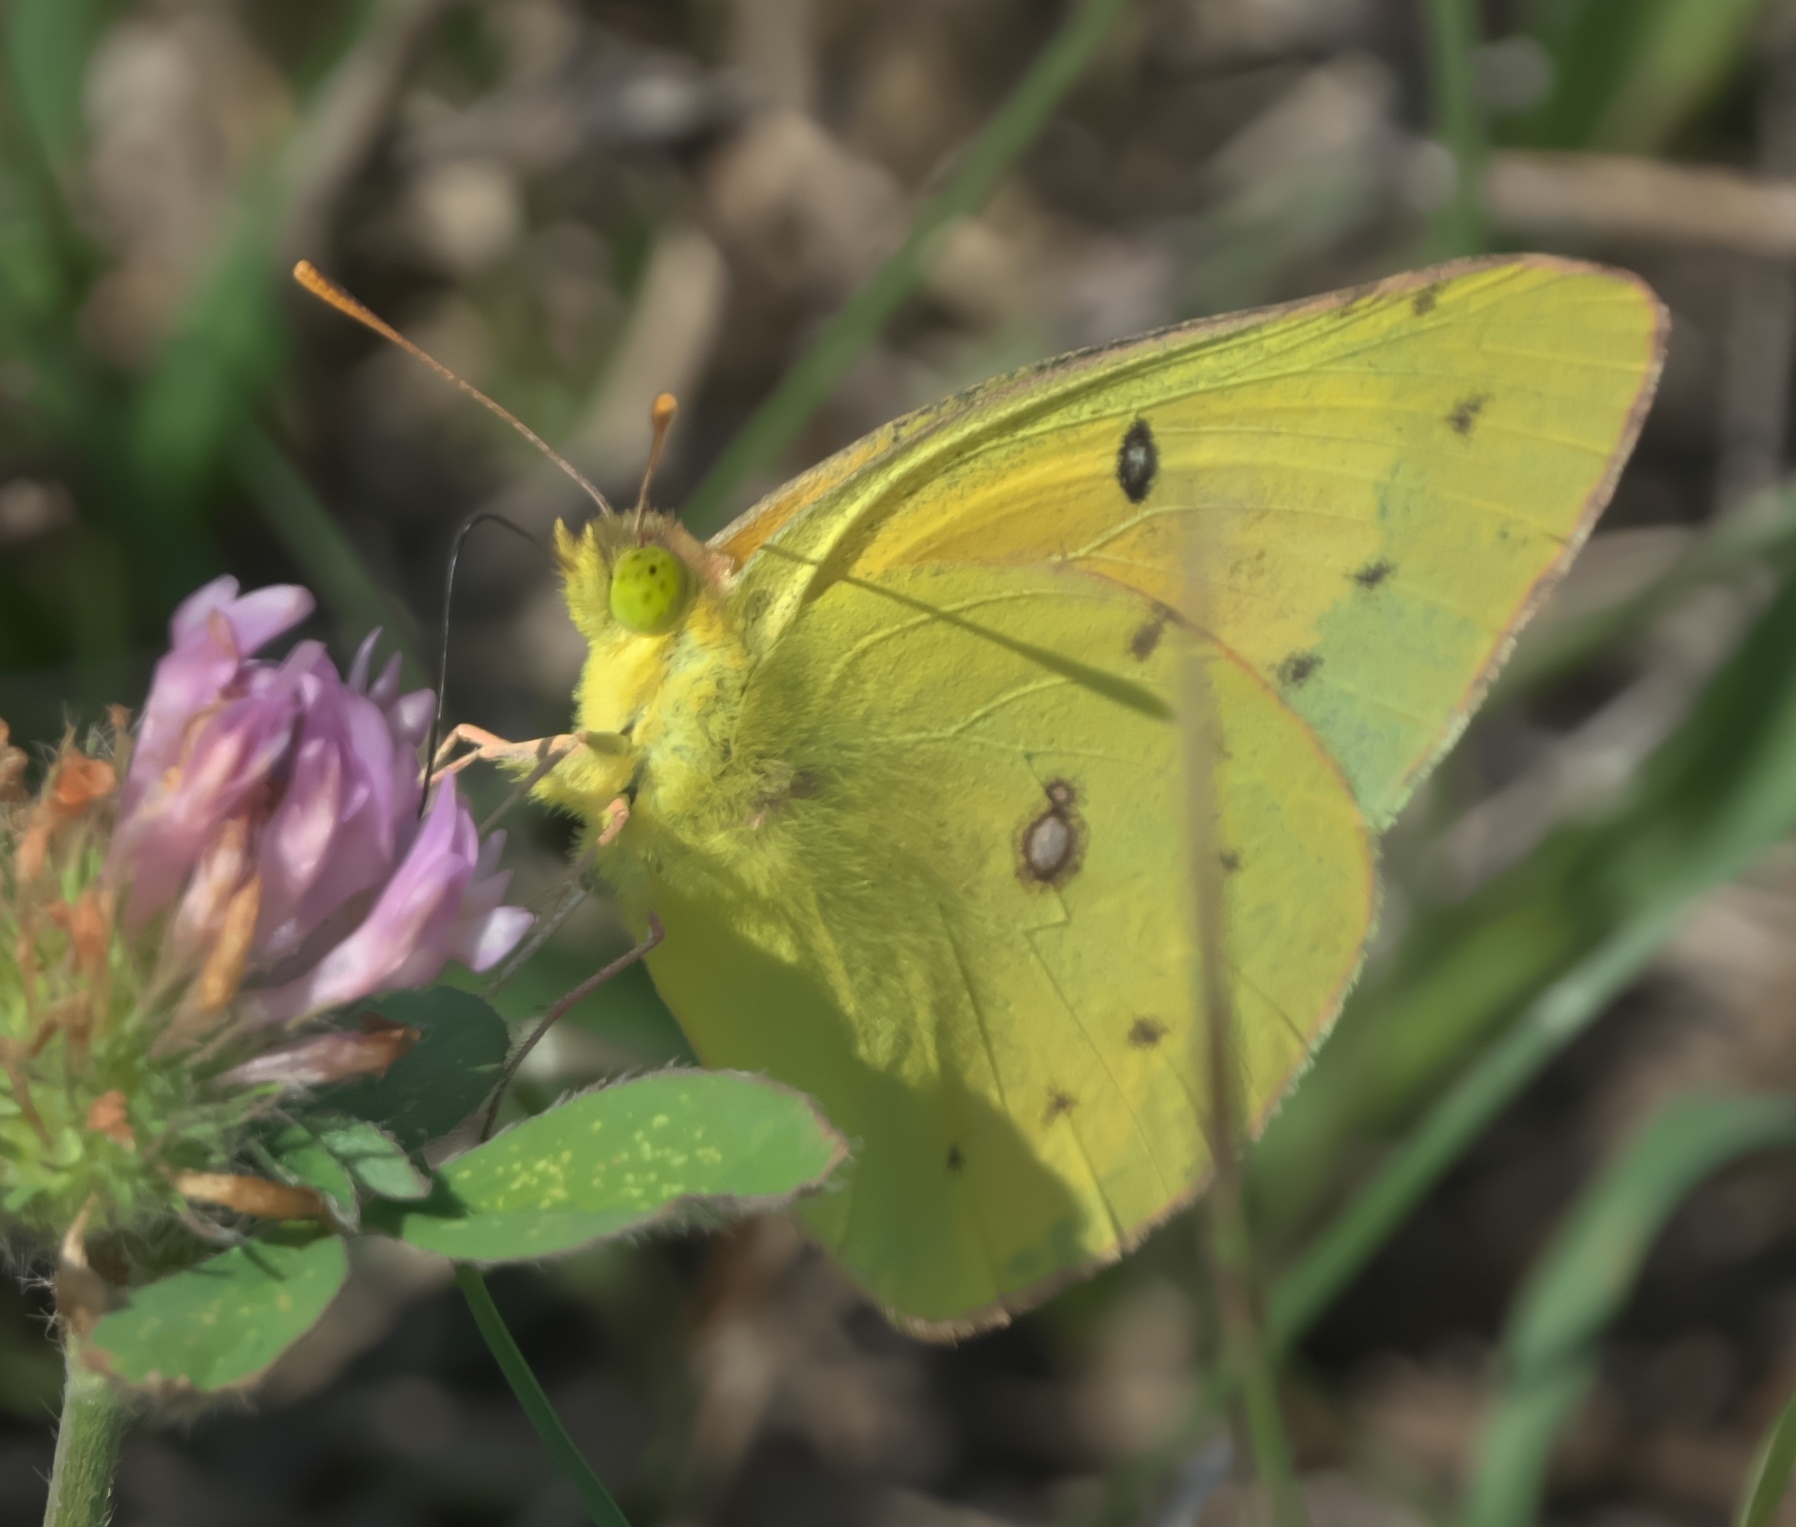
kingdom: Animalia
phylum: Arthropoda
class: Insecta
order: Lepidoptera
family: Pieridae
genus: Colias
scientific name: Colias eurytheme
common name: Alfalfa butterfly
